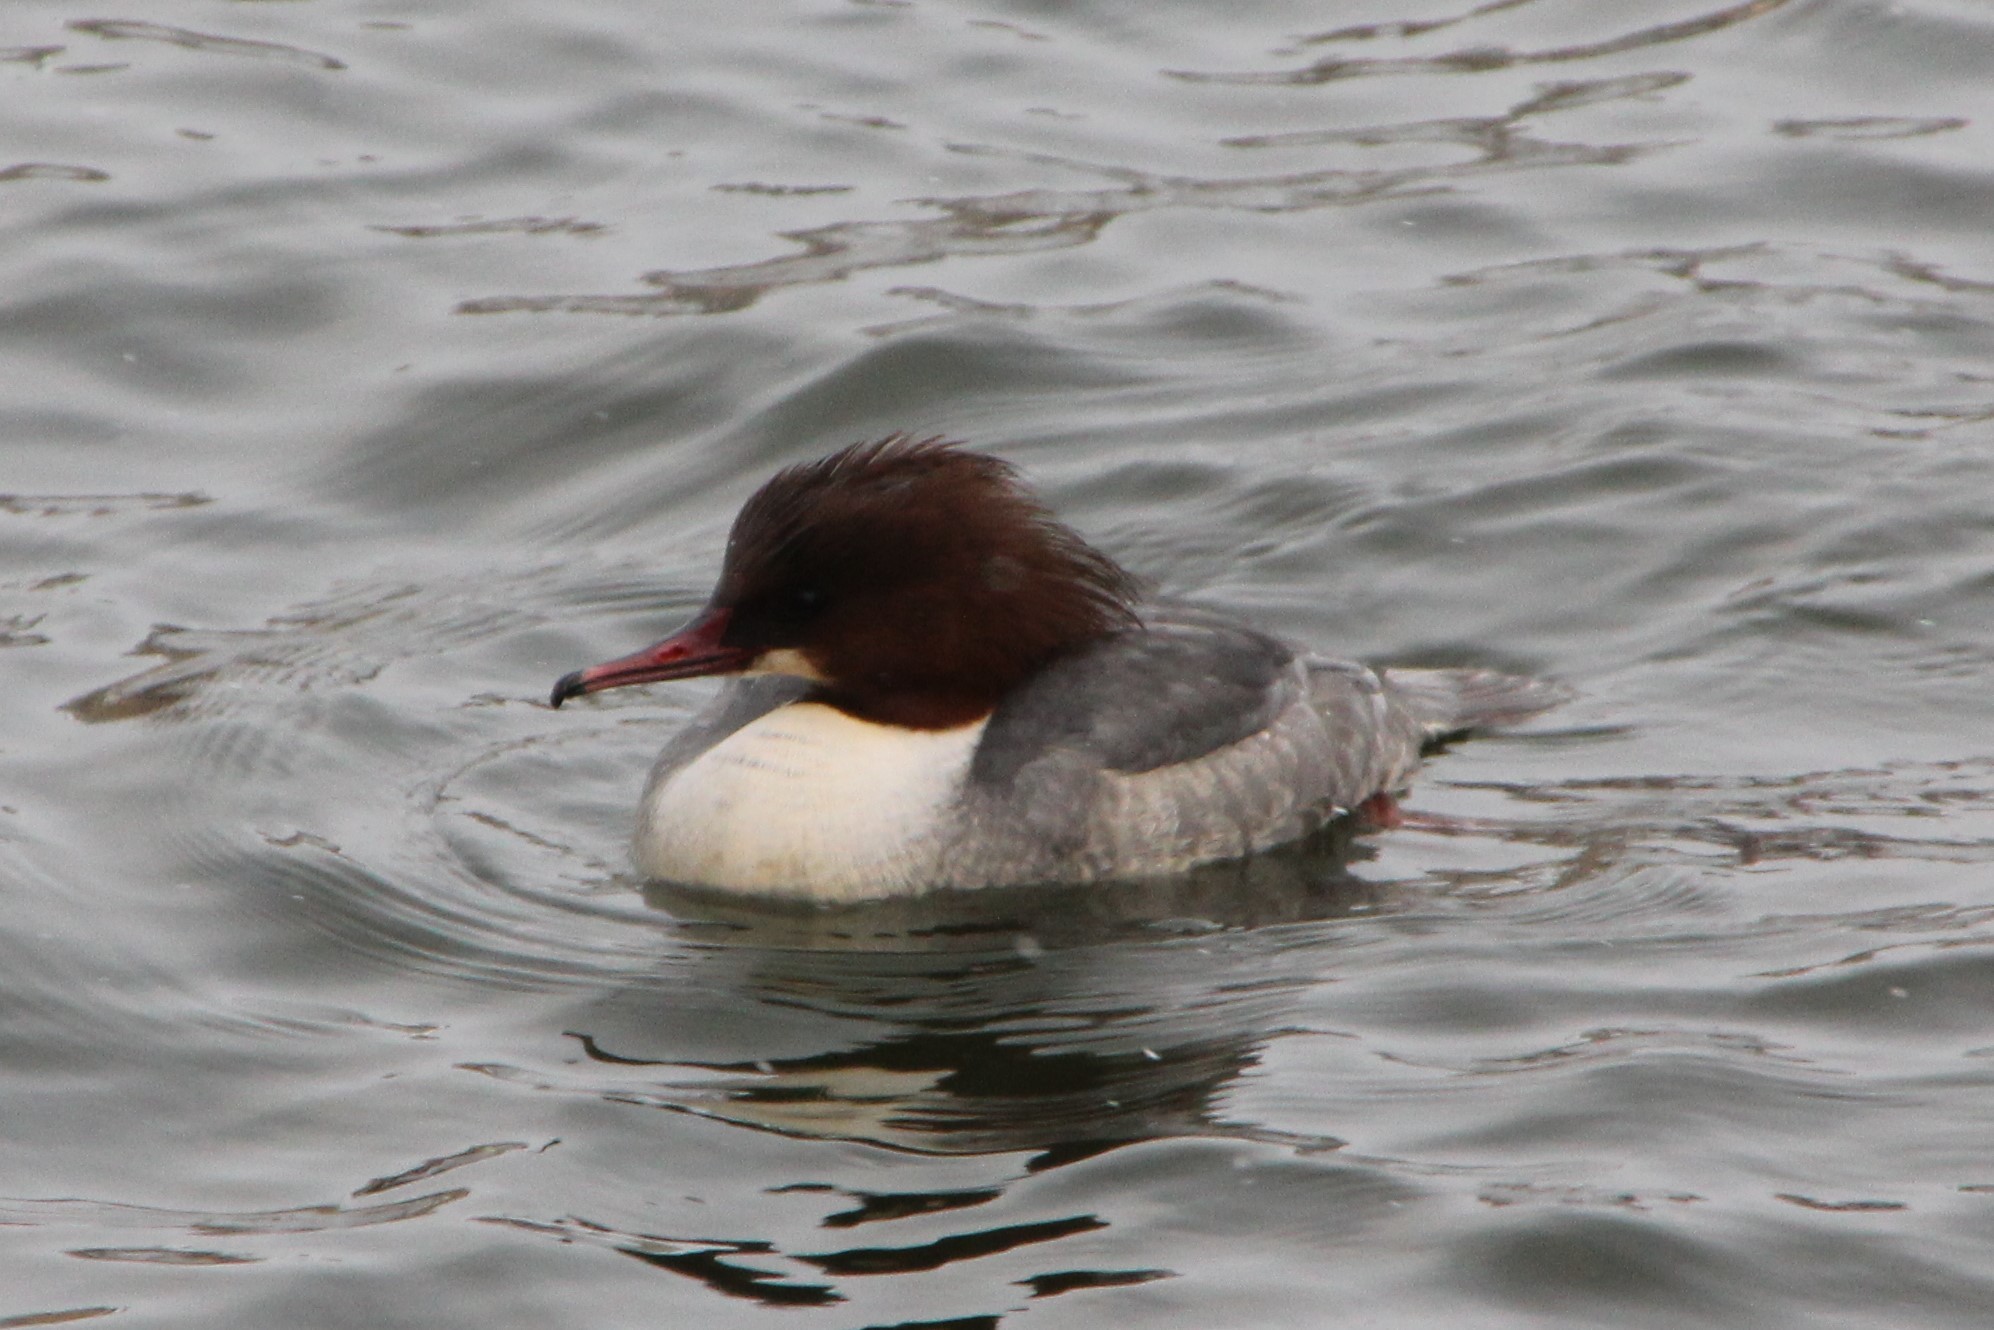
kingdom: Animalia
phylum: Chordata
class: Aves
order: Anseriformes
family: Anatidae
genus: Mergus
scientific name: Mergus merganser
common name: Common merganser
